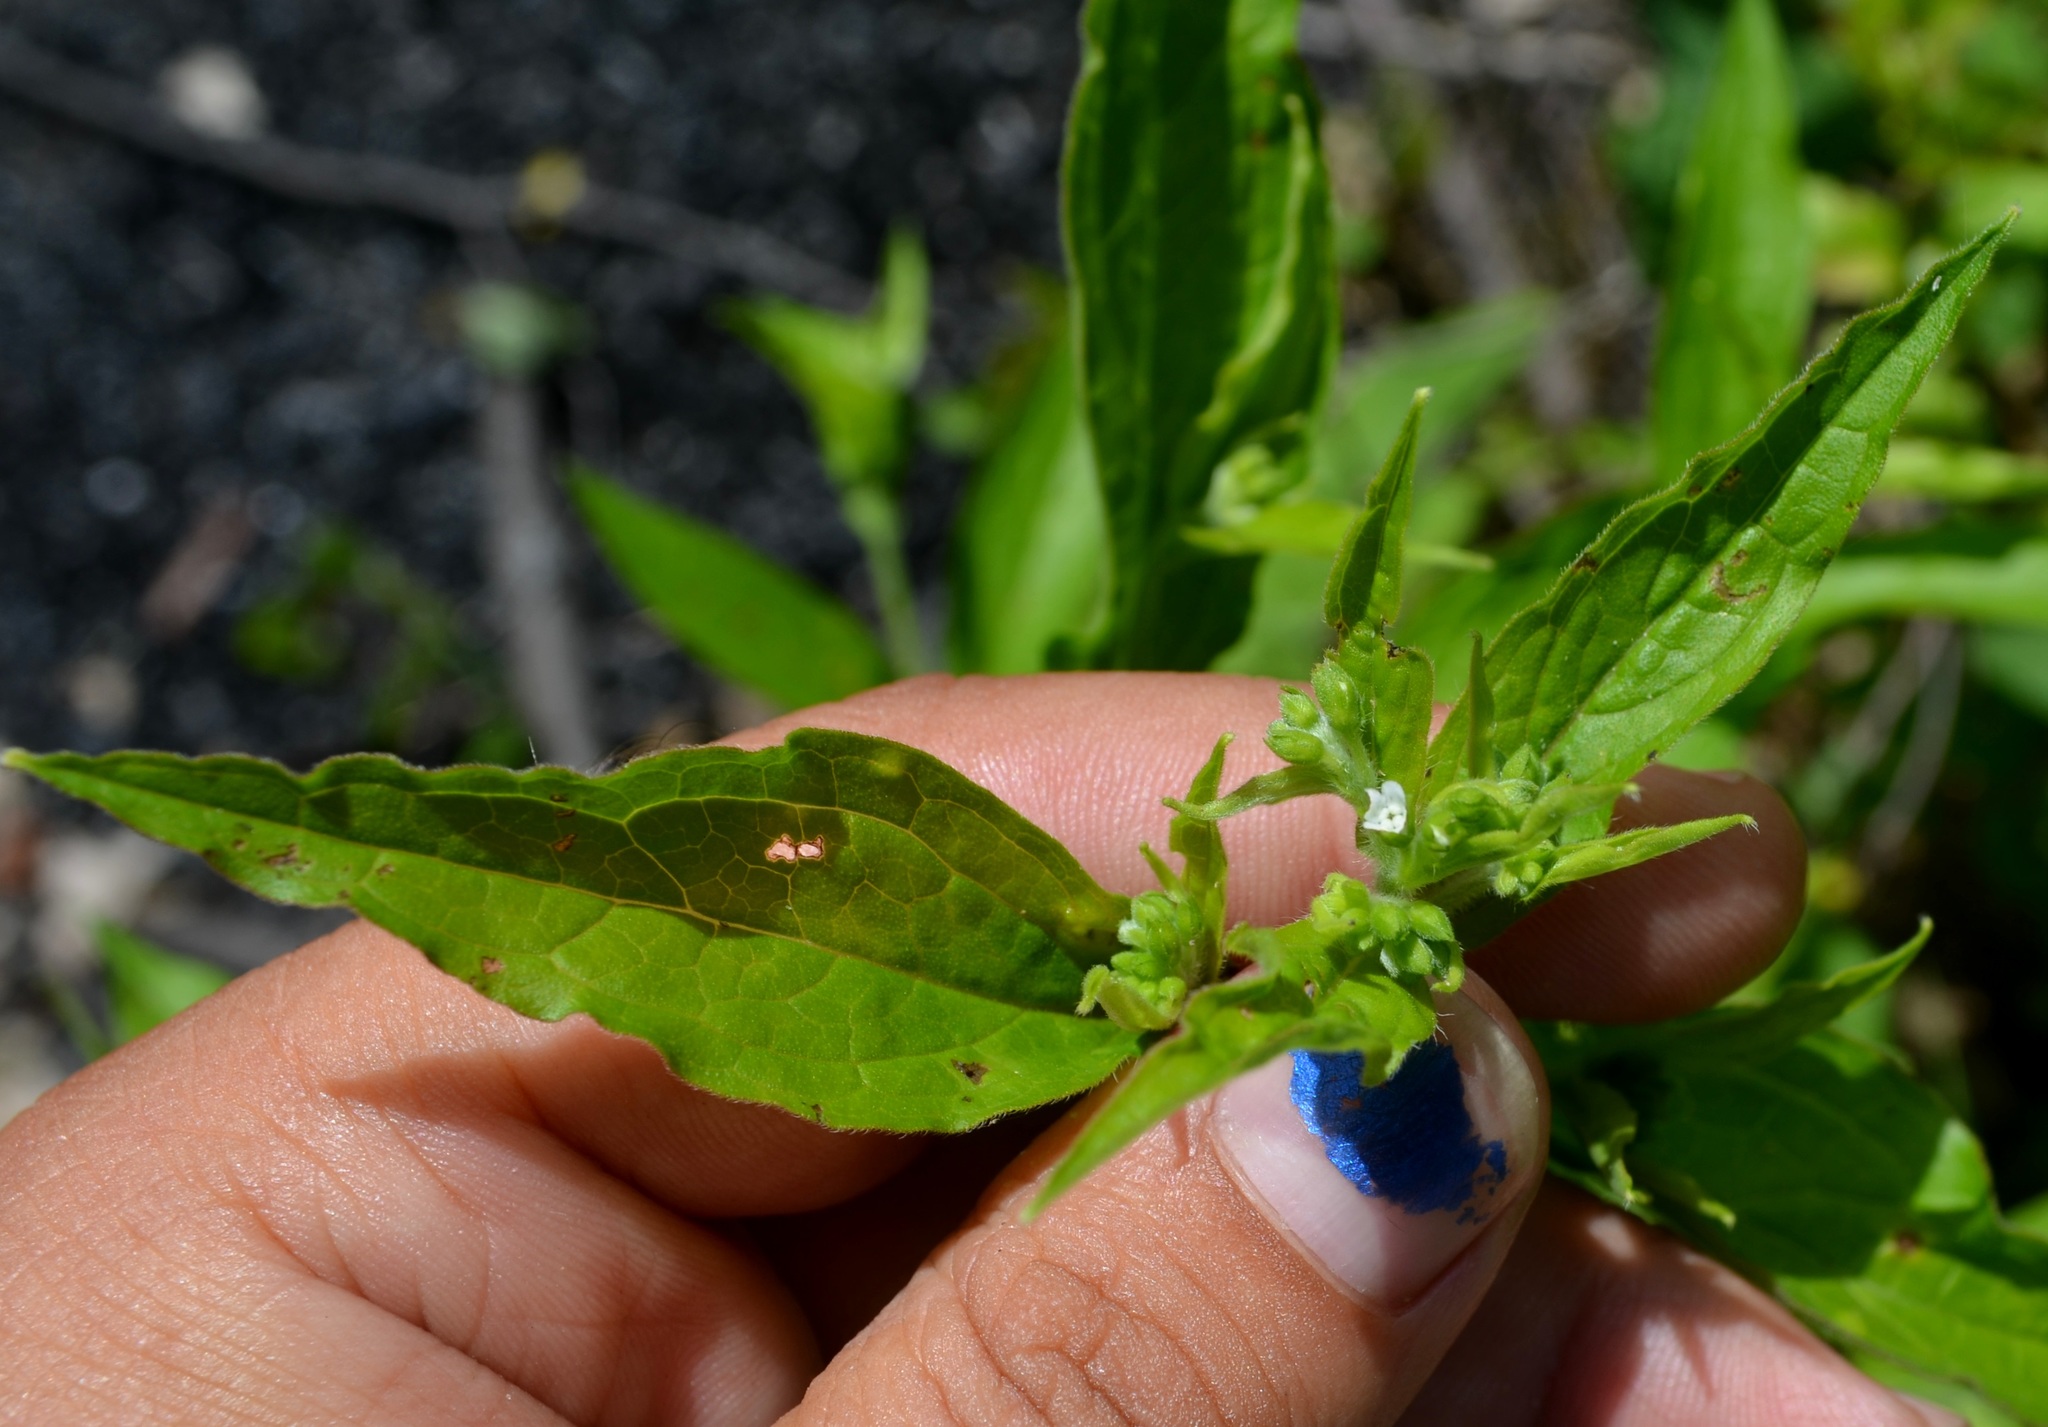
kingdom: Plantae
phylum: Tracheophyta
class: Magnoliopsida
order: Boraginales
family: Boraginaceae
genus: Hackelia
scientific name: Hackelia virginiana
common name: Beggar's-lice
